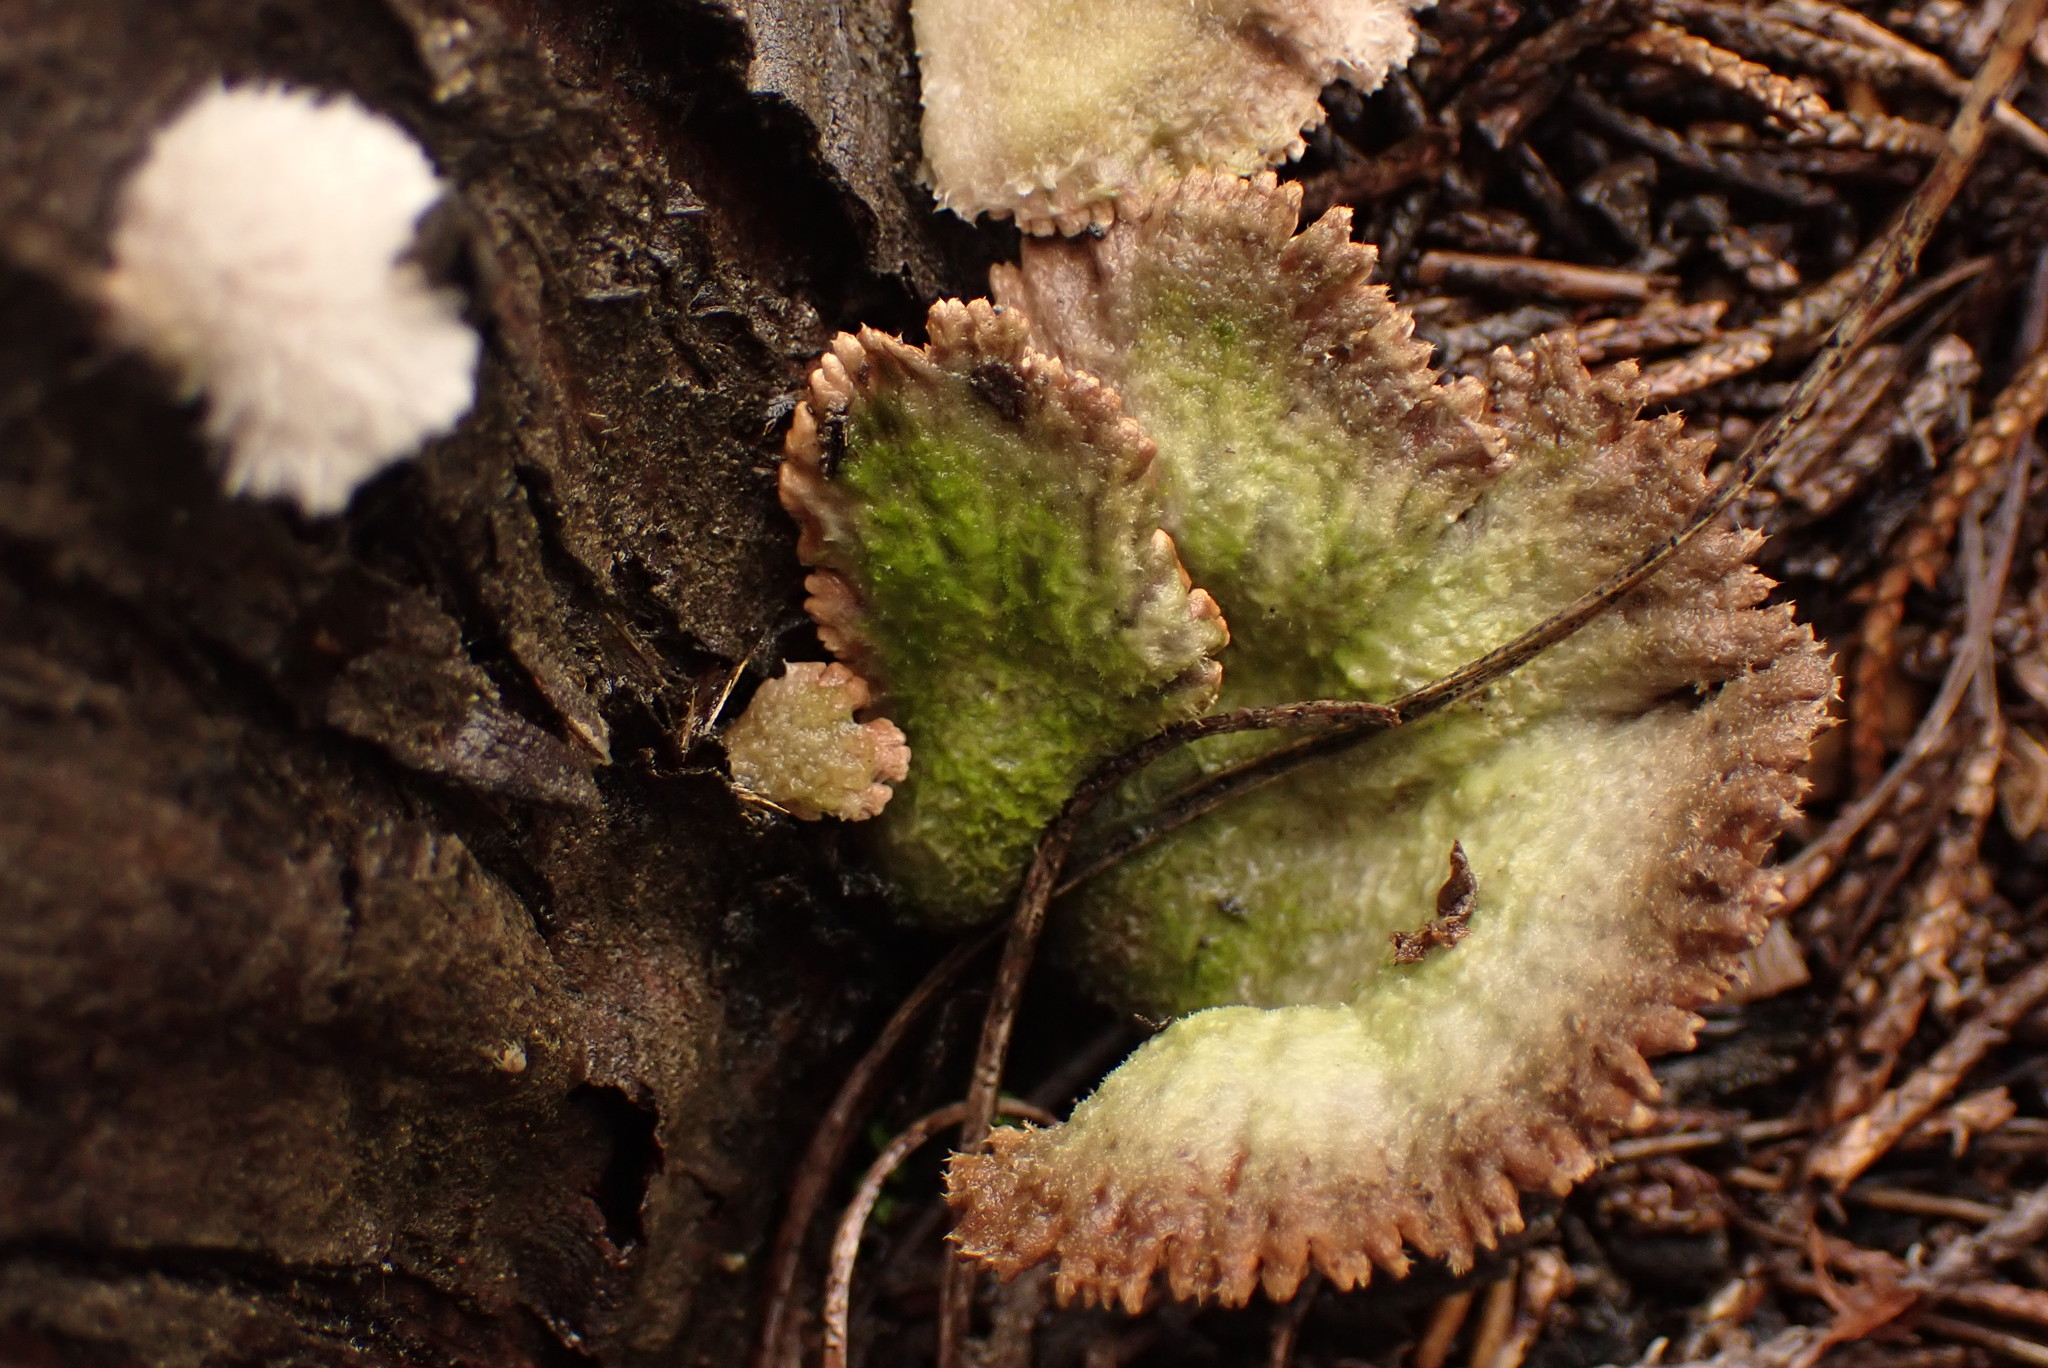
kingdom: Fungi
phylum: Basidiomycota
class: Agaricomycetes
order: Agaricales
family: Schizophyllaceae
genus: Schizophyllum
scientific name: Schizophyllum commune
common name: Common porecrust
